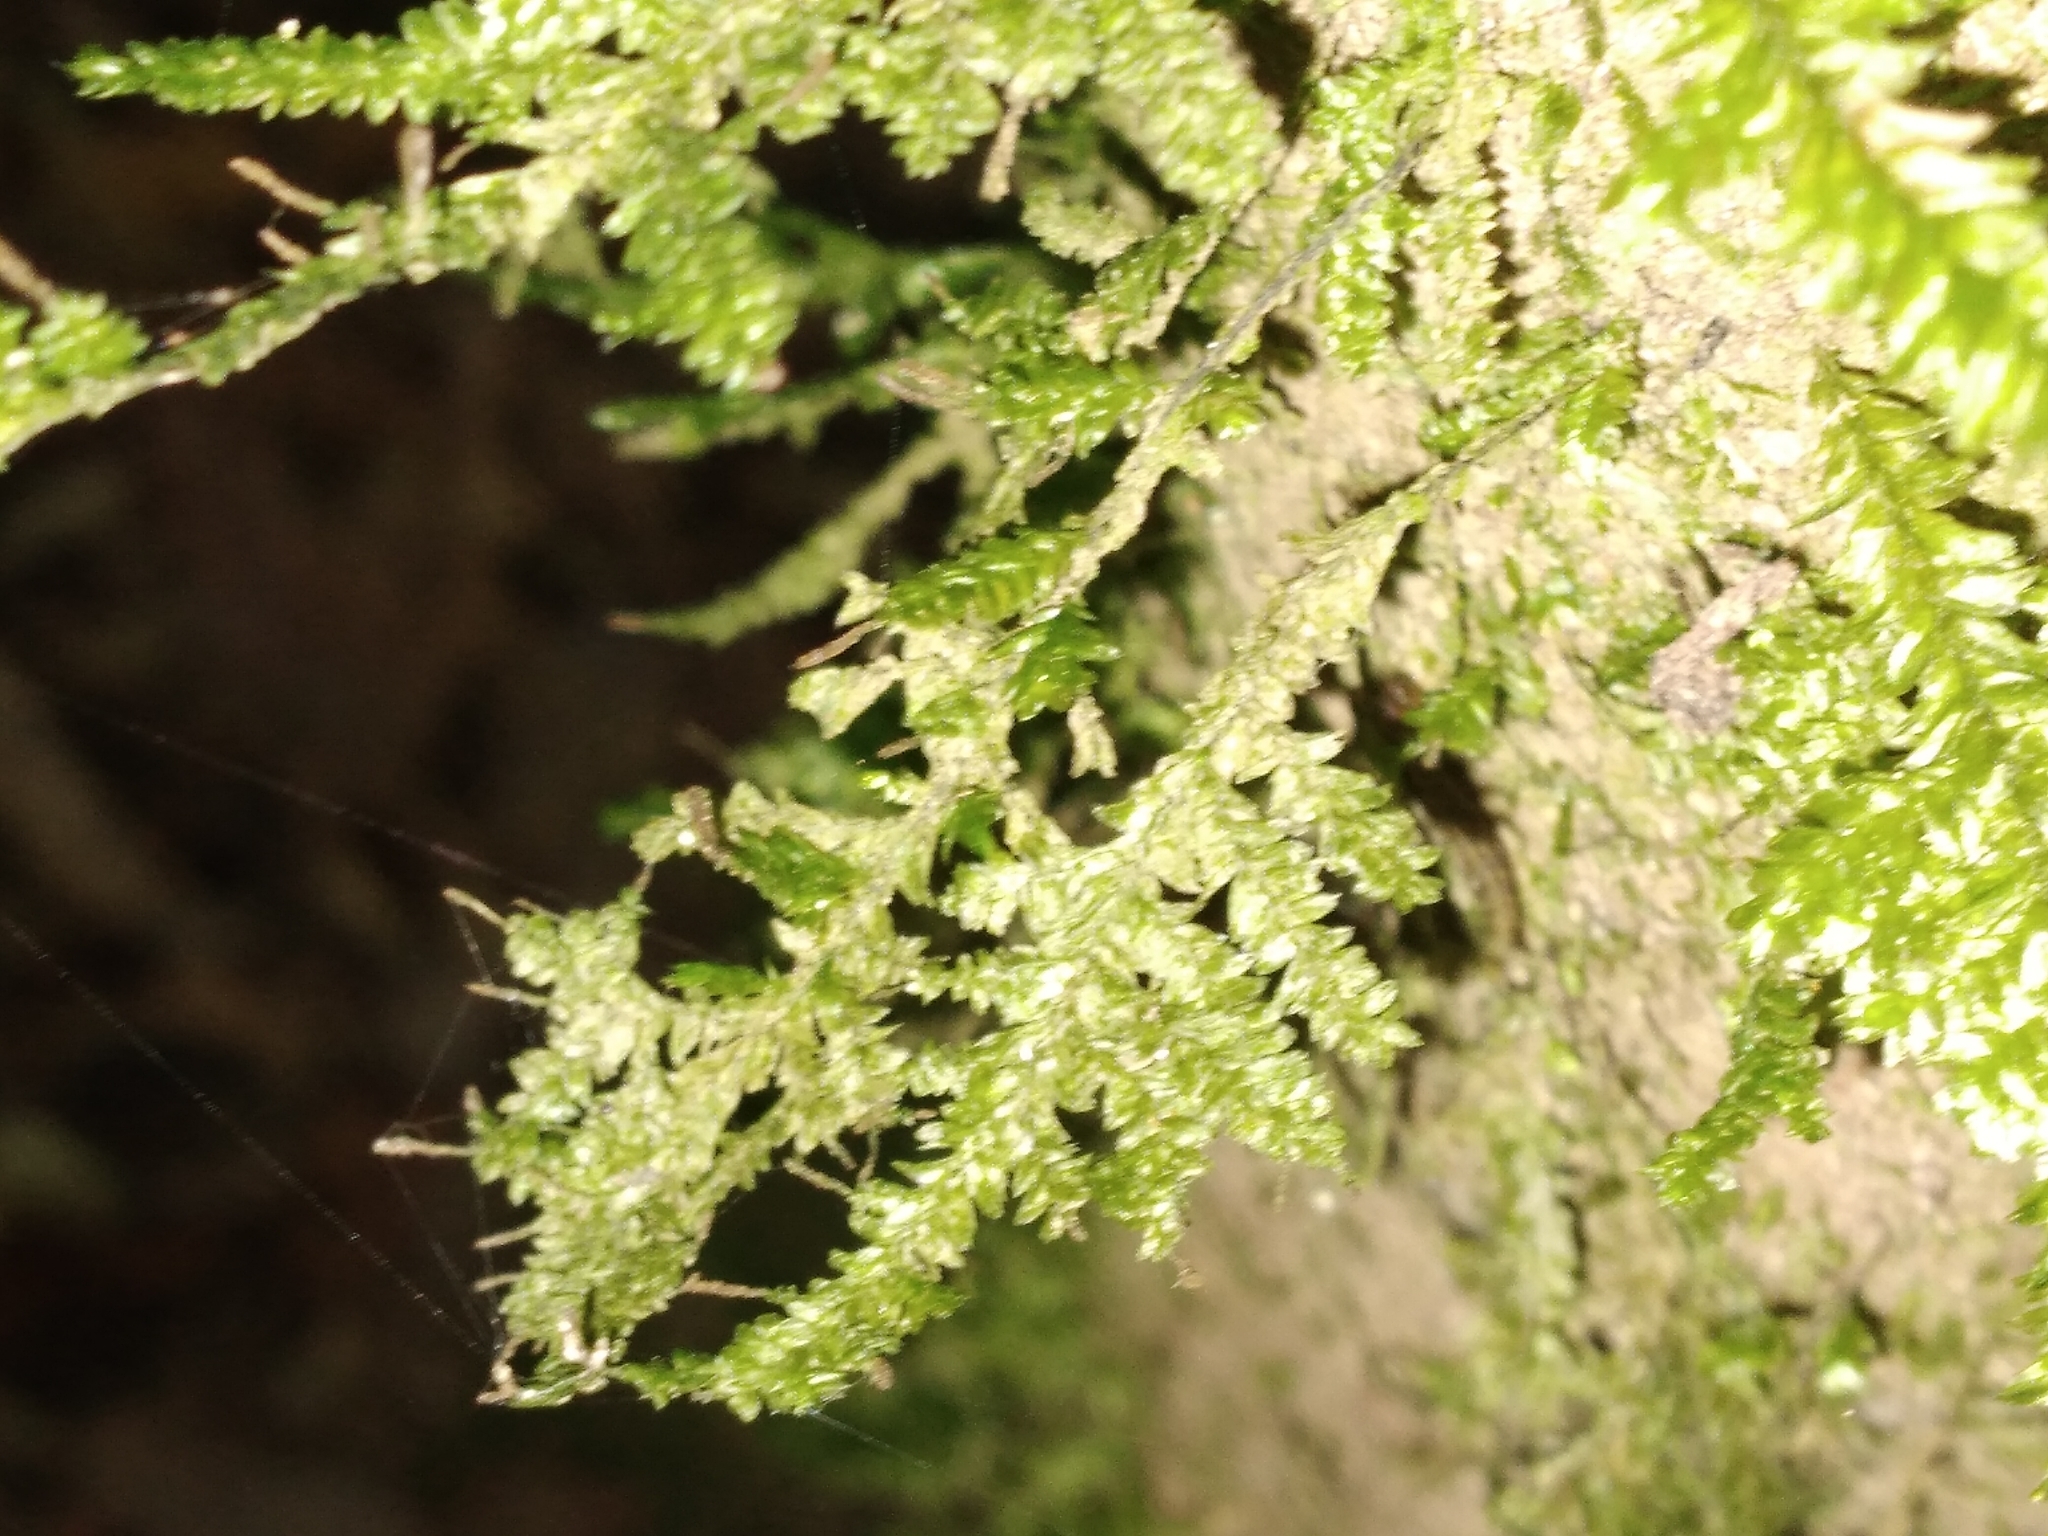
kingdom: Plantae
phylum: Bryophyta
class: Bryopsida
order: Hypnales
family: Trachylomataceae
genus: Trachyloma
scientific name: Trachyloma diversinerve
